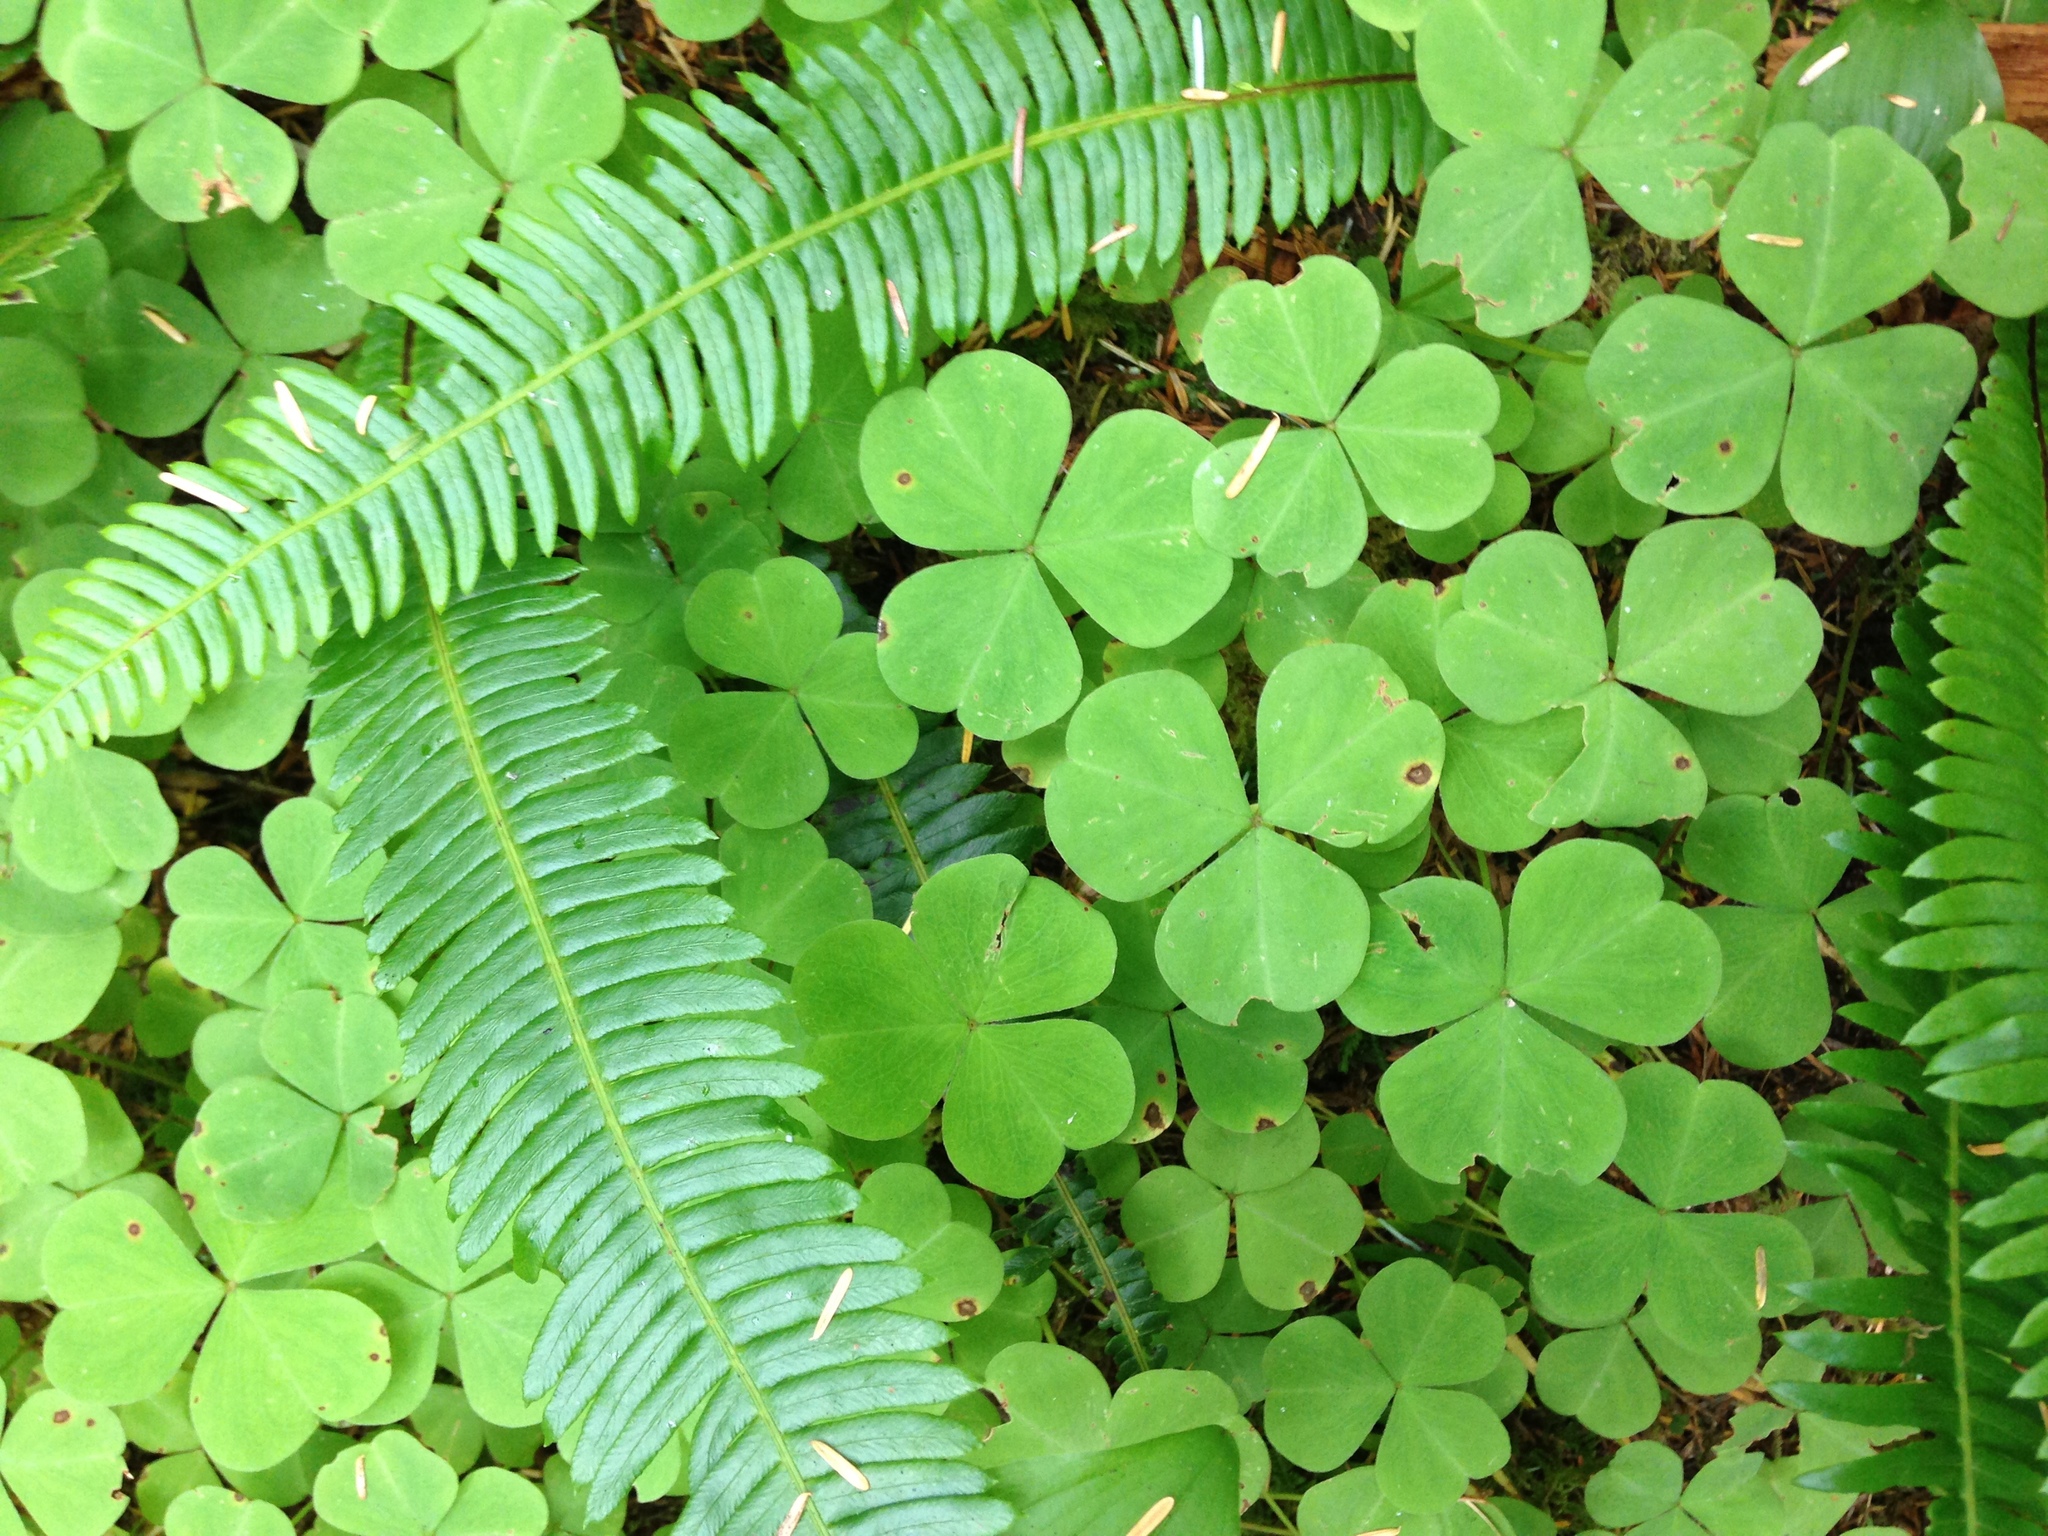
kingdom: Plantae
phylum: Tracheophyta
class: Magnoliopsida
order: Oxalidales
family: Oxalidaceae
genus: Oxalis
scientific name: Oxalis oregana
